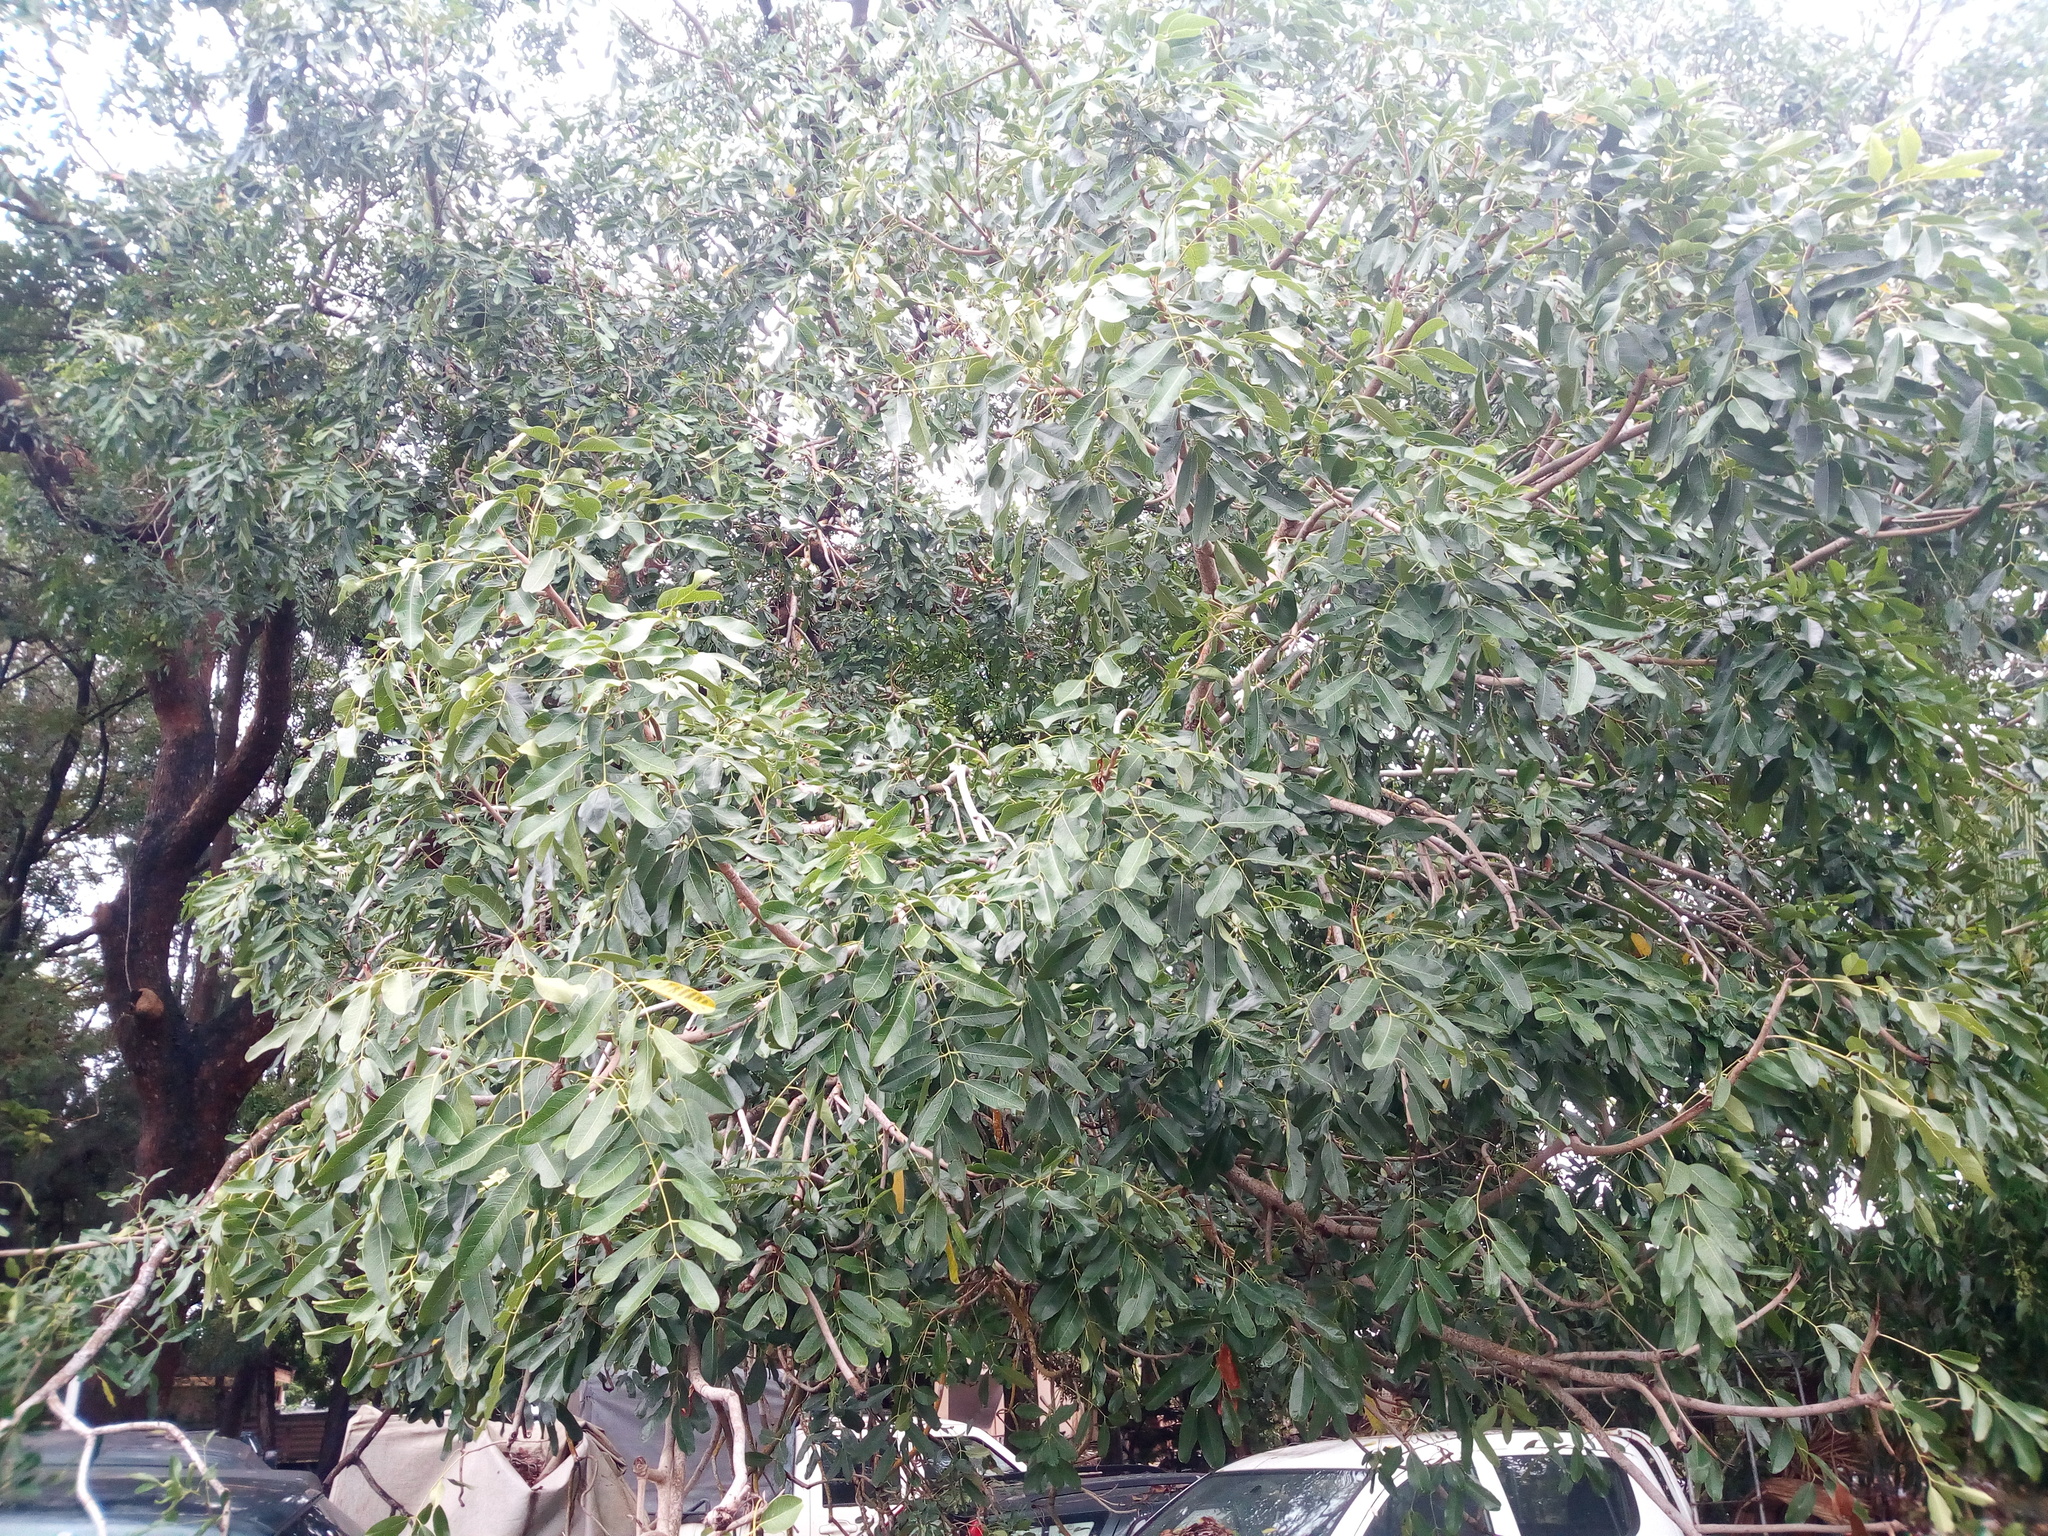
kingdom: Plantae
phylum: Tracheophyta
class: Magnoliopsida
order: Sapindales
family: Meliaceae
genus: Khaya
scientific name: Khaya senegalensis
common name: Senegal mahogany
